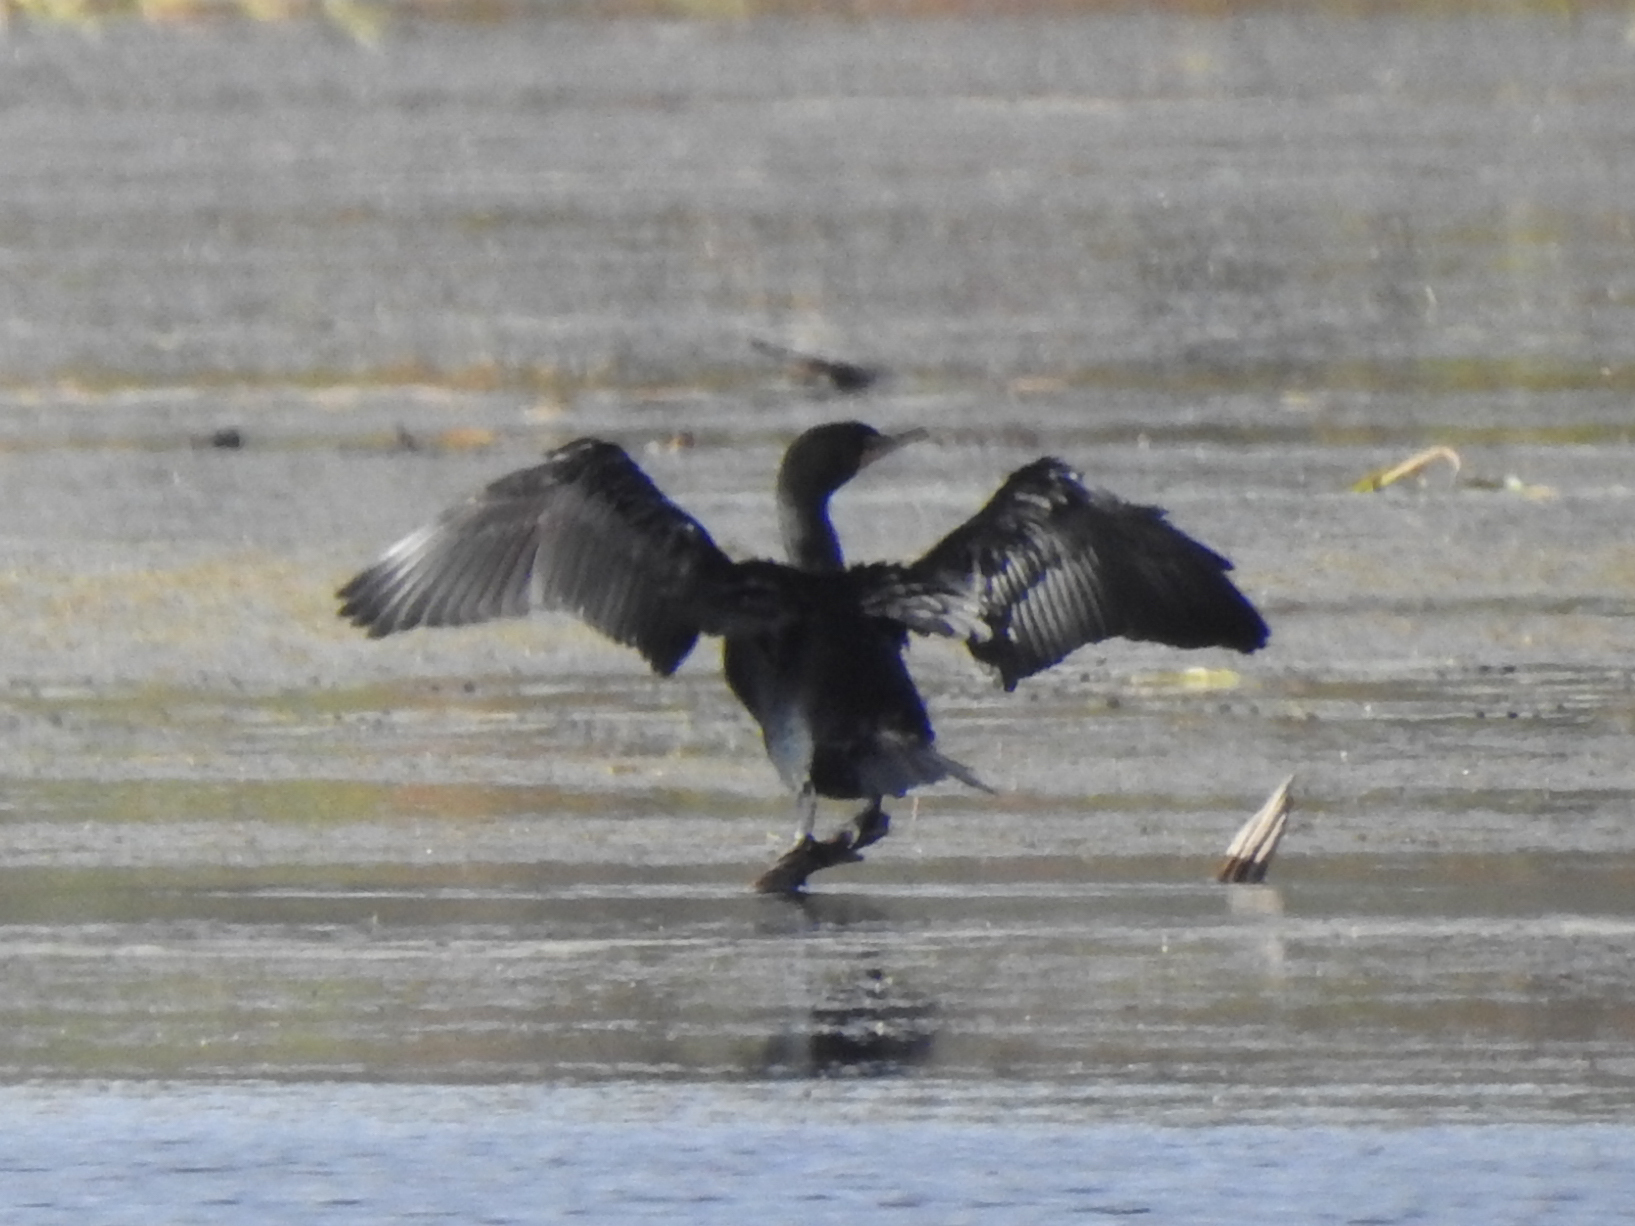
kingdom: Animalia
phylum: Chordata
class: Aves
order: Suliformes
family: Phalacrocoracidae
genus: Phalacrocorax
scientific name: Phalacrocorax auritus
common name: Double-crested cormorant
